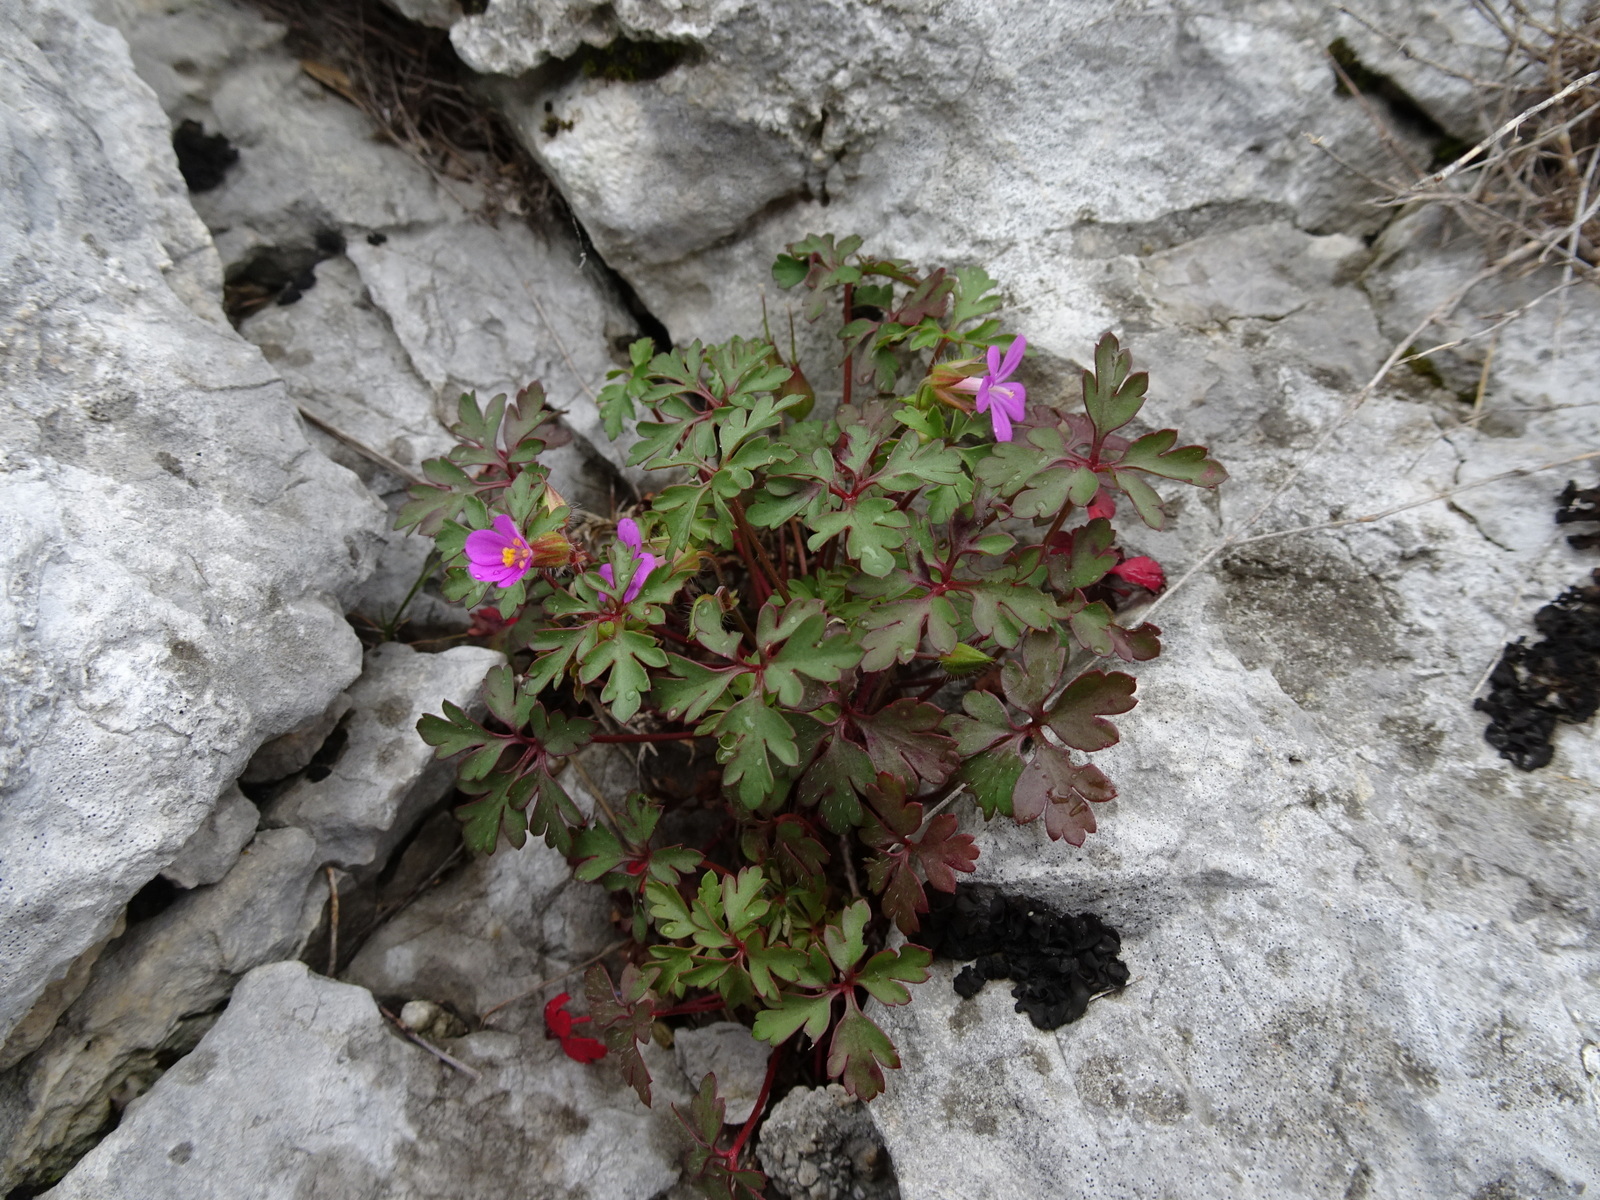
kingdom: Plantae
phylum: Tracheophyta
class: Magnoliopsida
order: Geraniales
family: Geraniaceae
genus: Geranium
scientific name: Geranium robertianum
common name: Herb-robert
